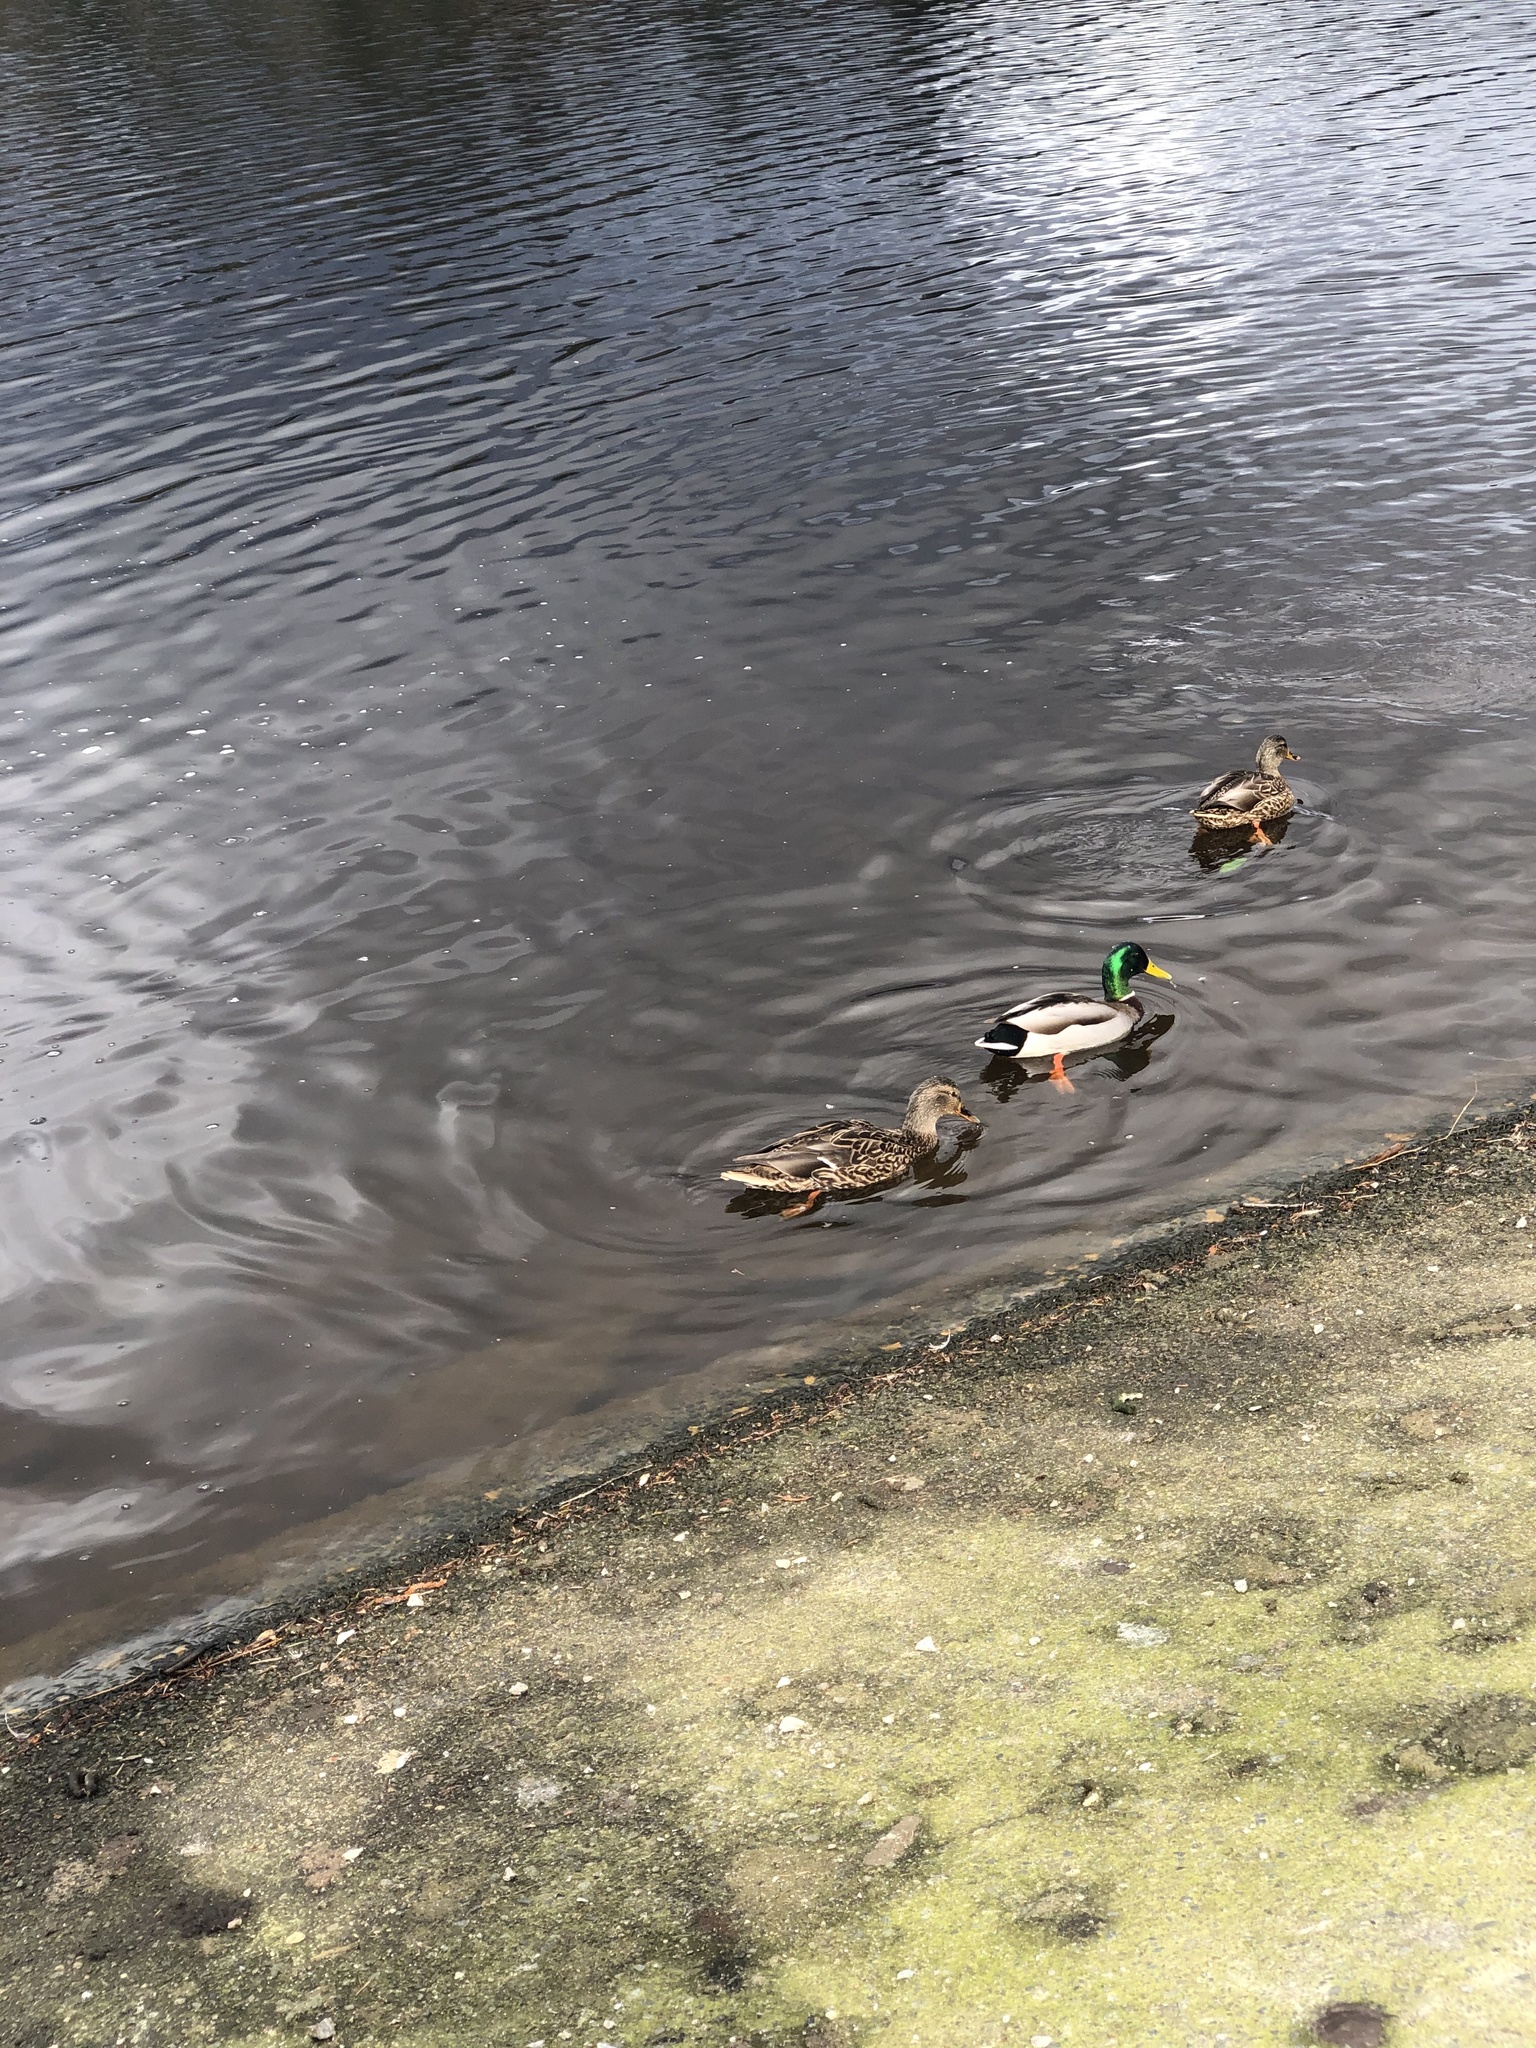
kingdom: Animalia
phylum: Chordata
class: Aves
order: Anseriformes
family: Anatidae
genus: Anas
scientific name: Anas platyrhynchos
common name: Mallard
